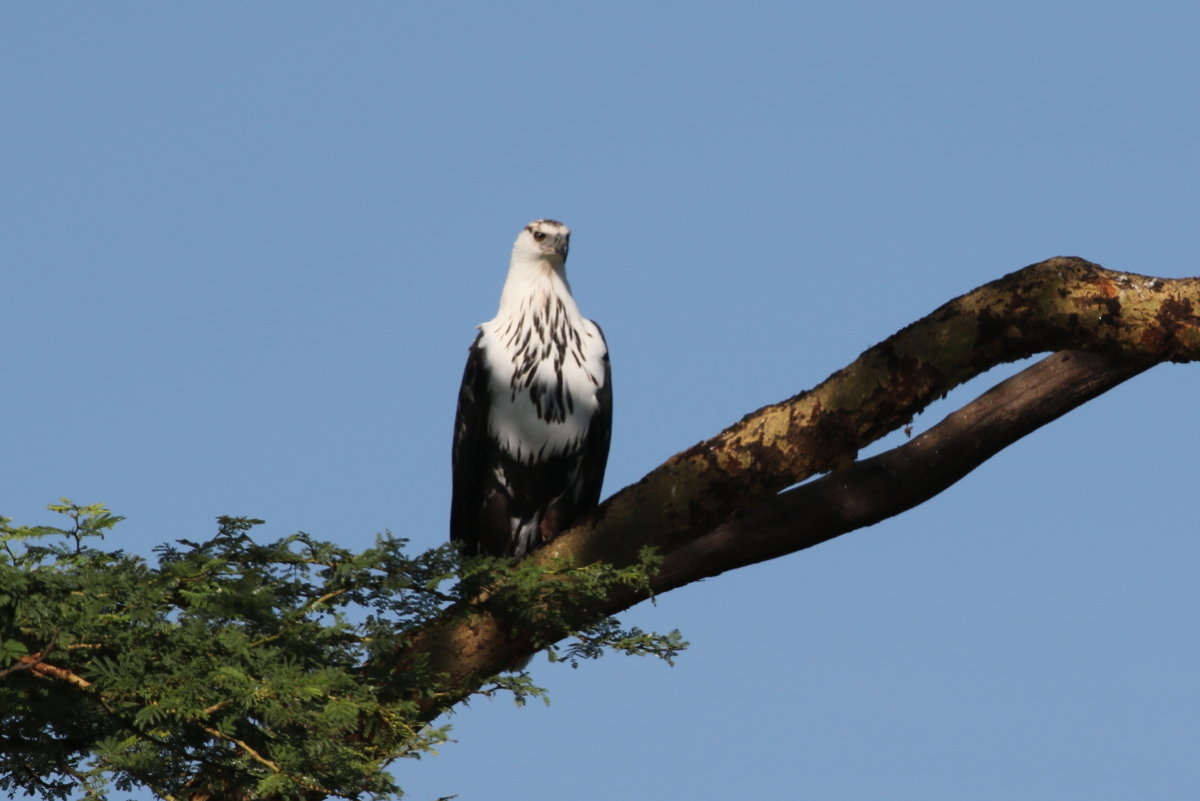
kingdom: Animalia
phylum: Chordata
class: Aves
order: Accipitriformes
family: Accipitridae
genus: Haliaeetus
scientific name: Haliaeetus vocifer
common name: African fish eagle
